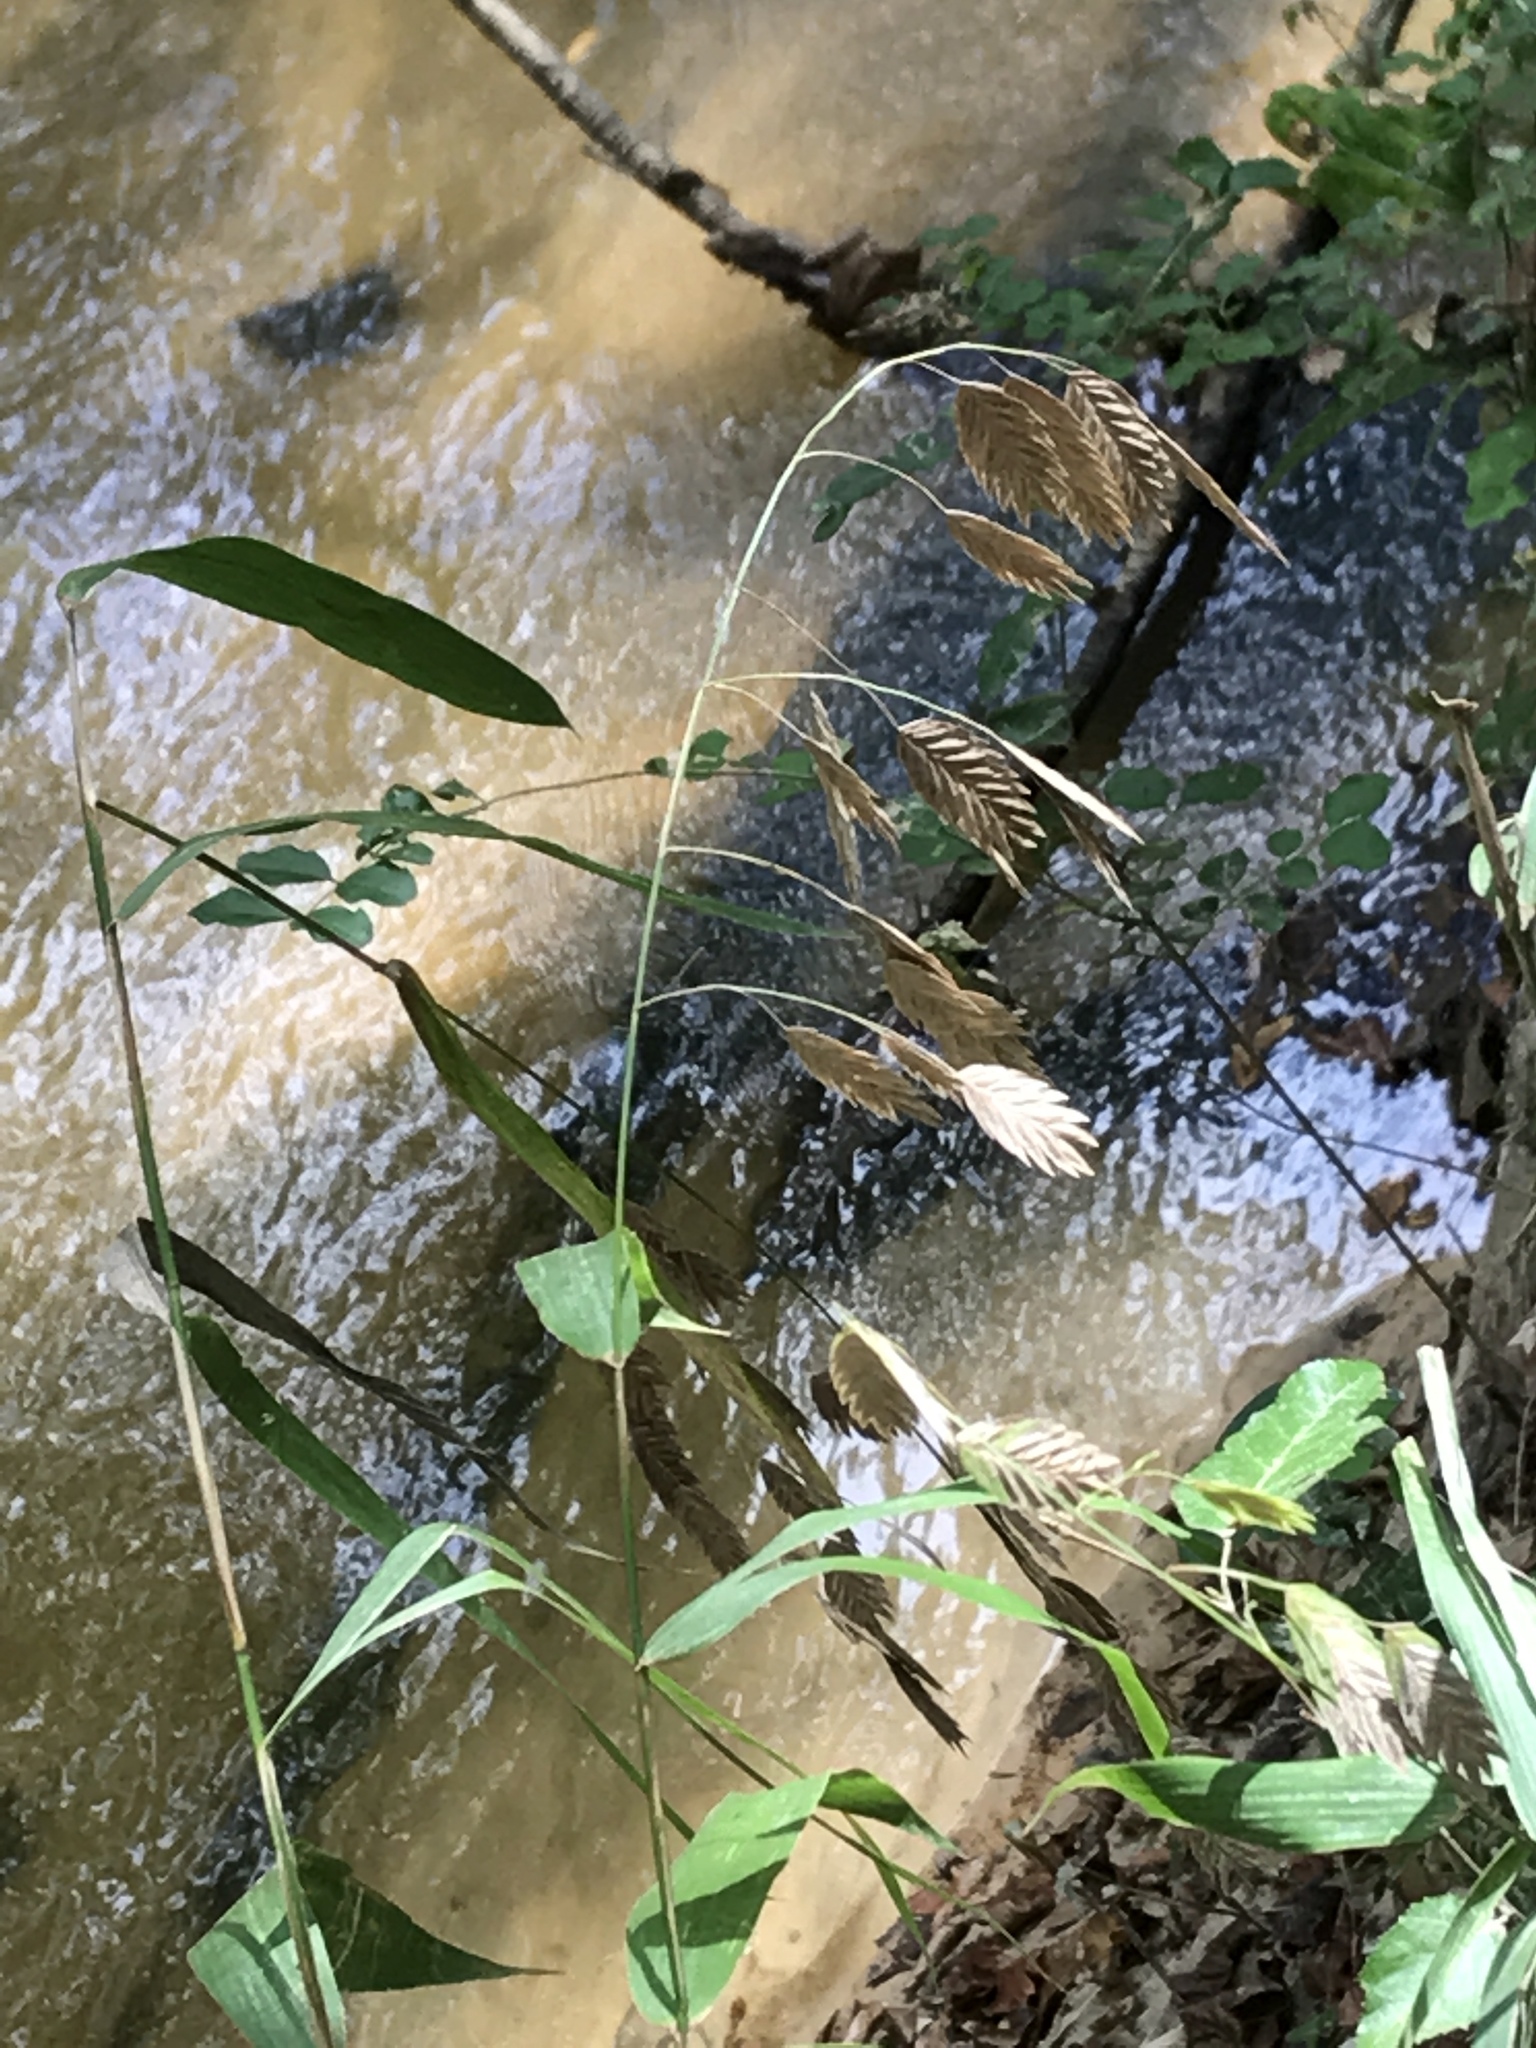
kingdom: Plantae
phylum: Tracheophyta
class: Liliopsida
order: Poales
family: Poaceae
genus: Chasmanthium
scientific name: Chasmanthium latifolium
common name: Broad-leaved chasmanthium
